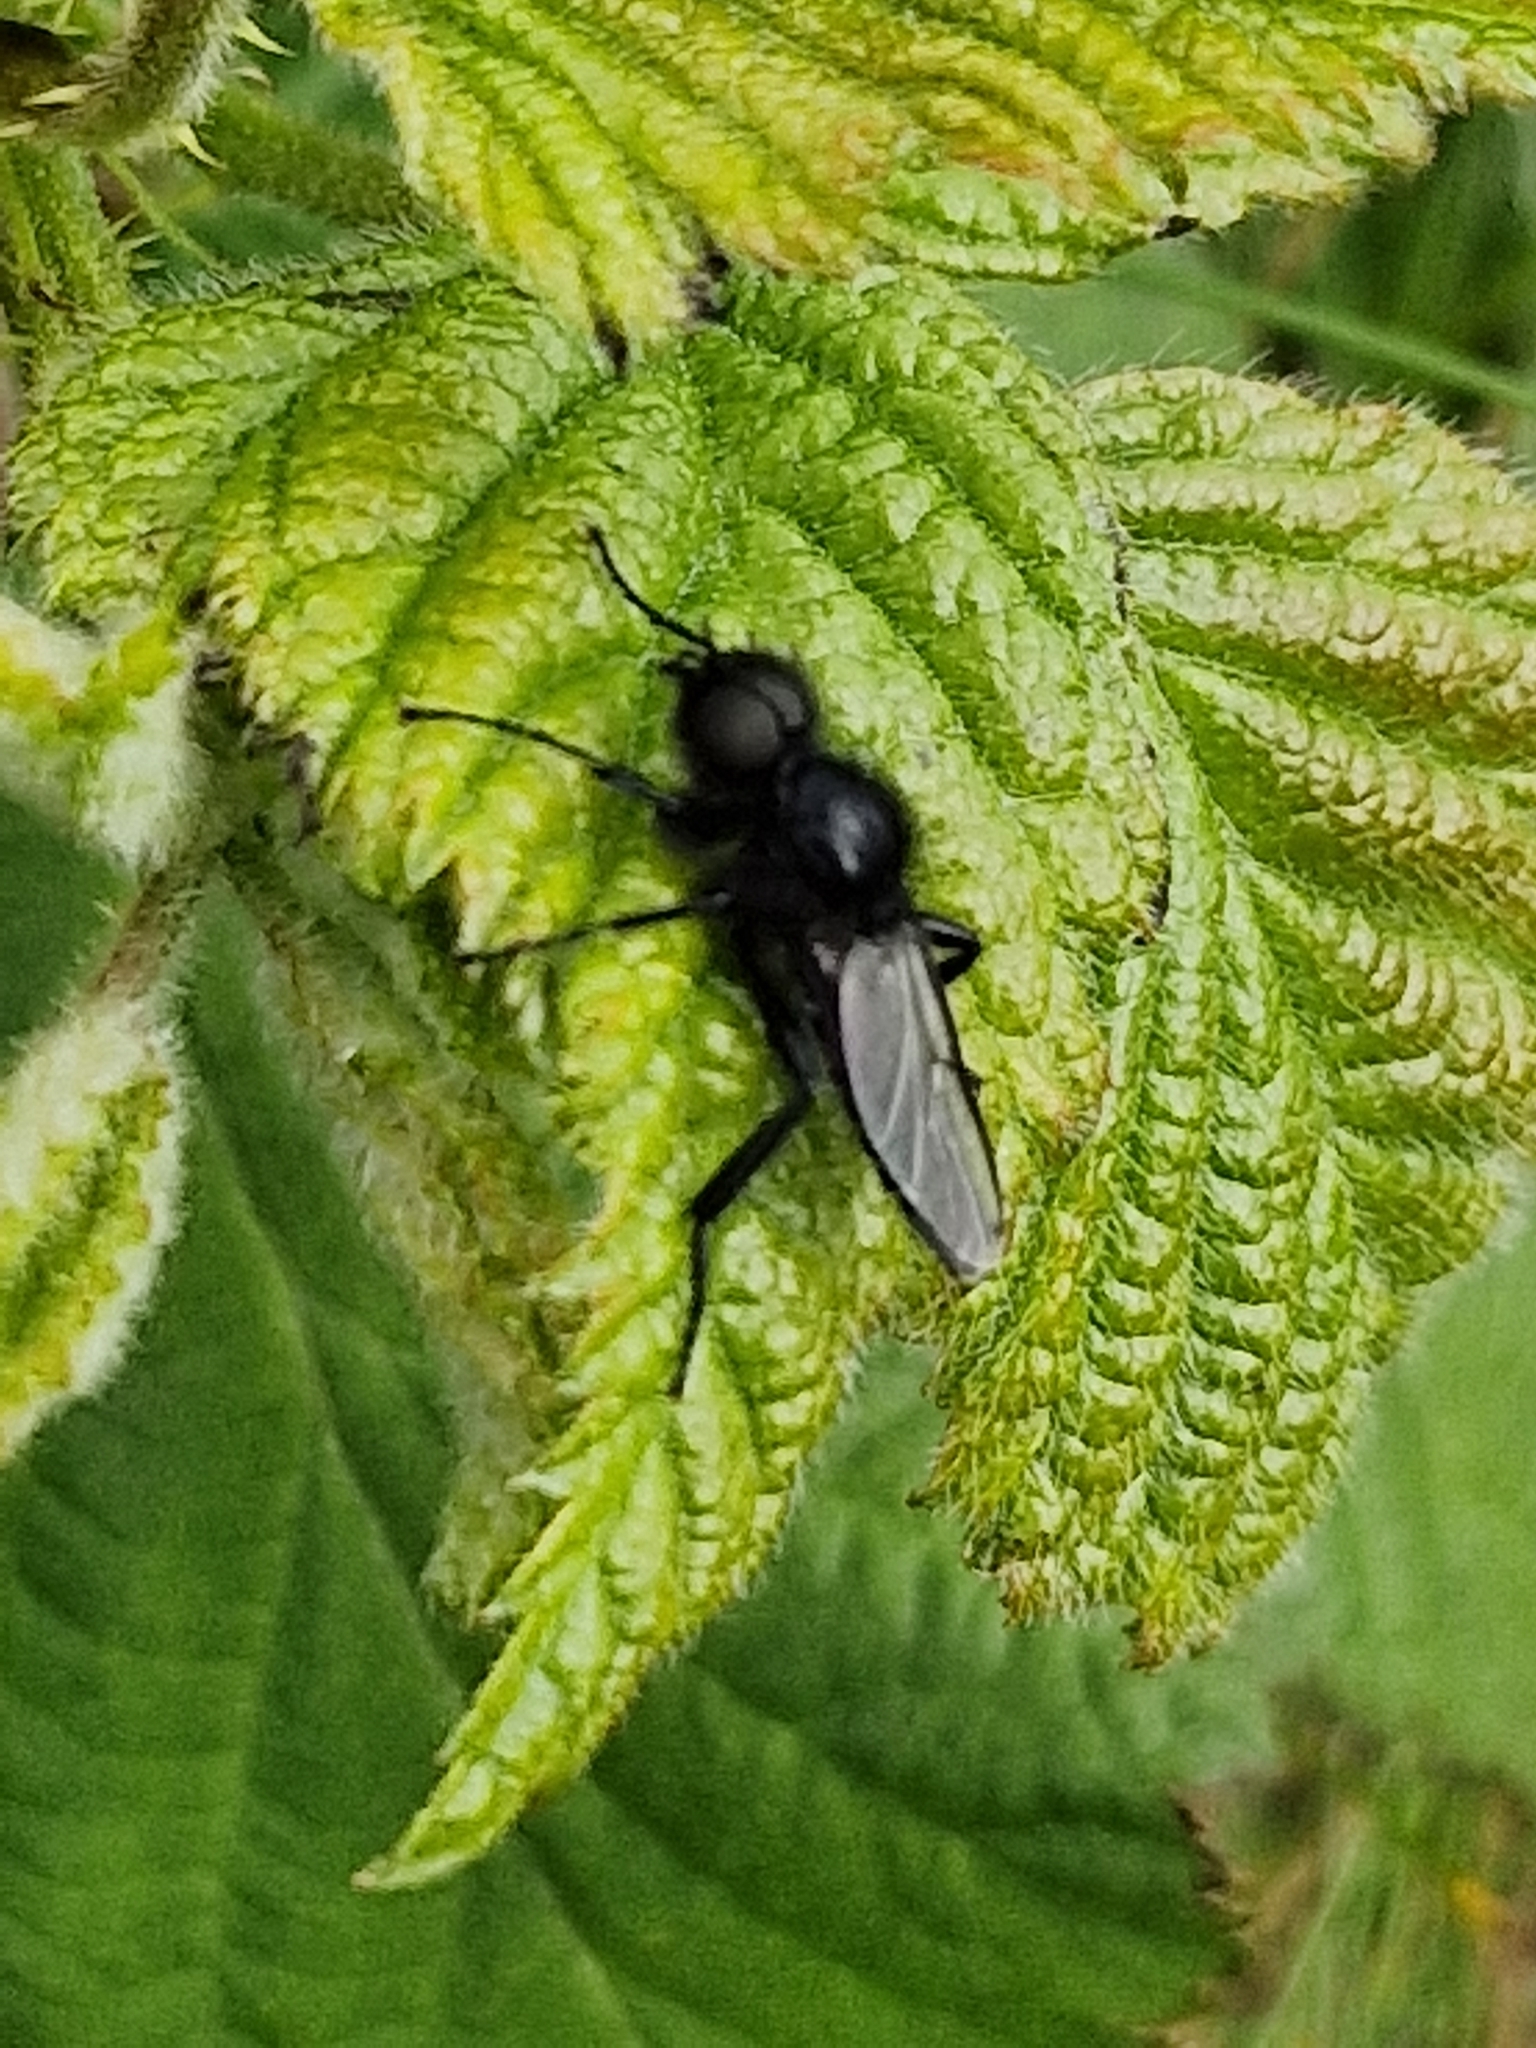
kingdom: Animalia
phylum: Arthropoda
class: Insecta
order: Diptera
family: Bibionidae
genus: Bibio
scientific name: Bibio marci
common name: St marks fly
